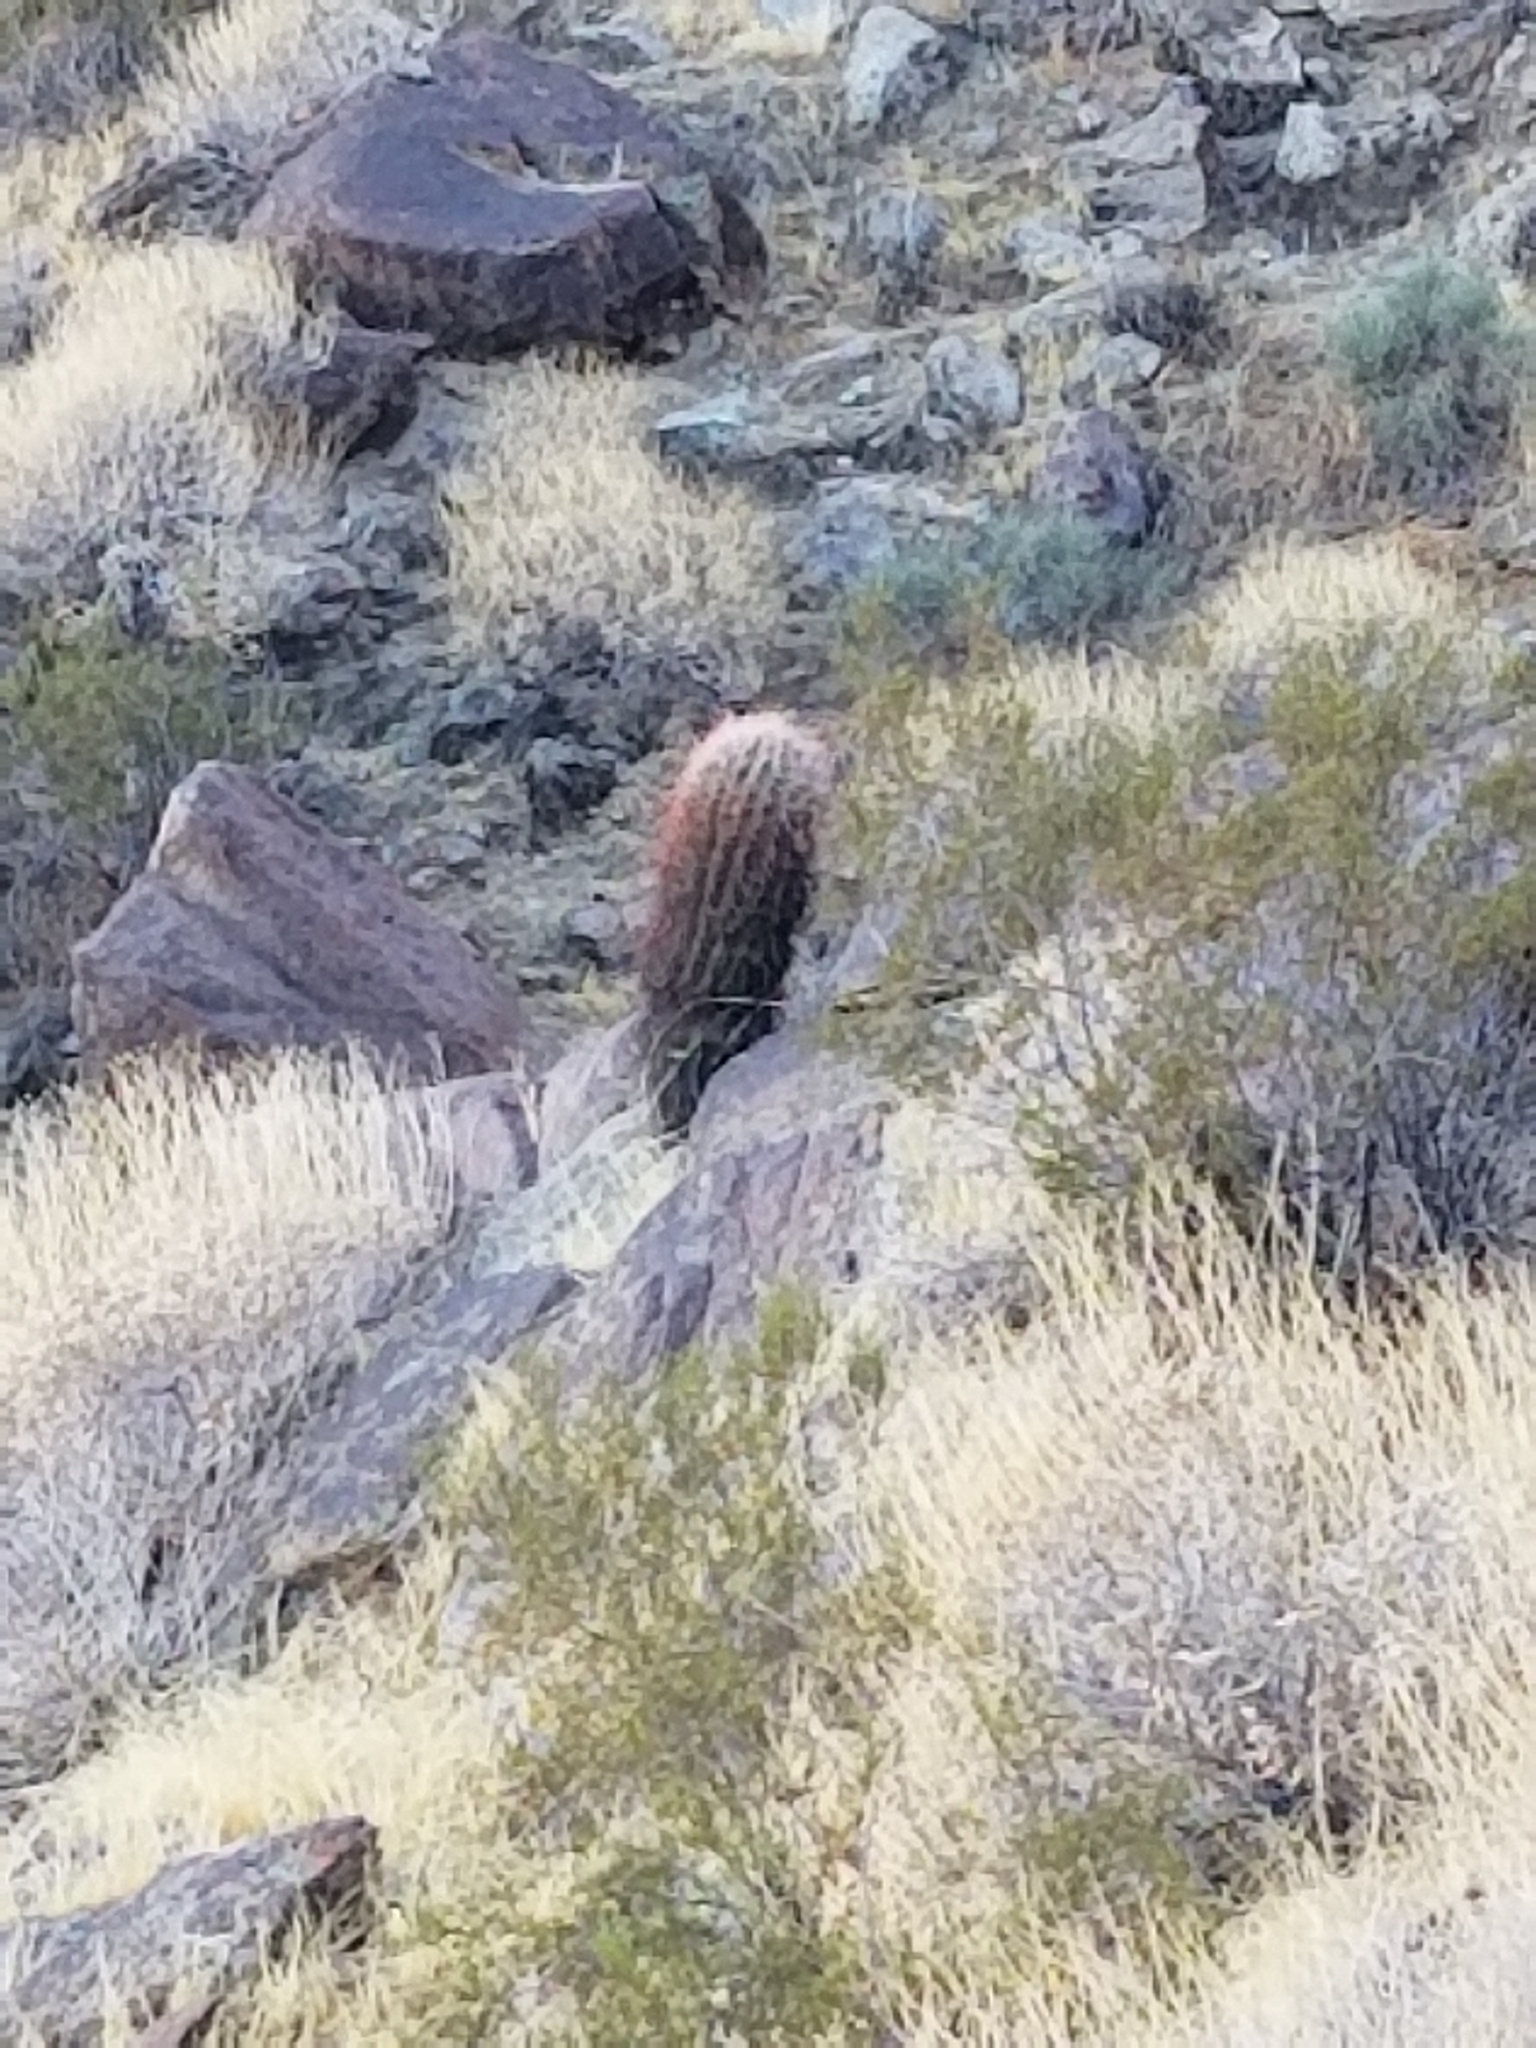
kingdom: Plantae
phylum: Tracheophyta
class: Magnoliopsida
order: Caryophyllales
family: Cactaceae
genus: Ferocactus
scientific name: Ferocactus cylindraceus
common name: California barrel cactus
